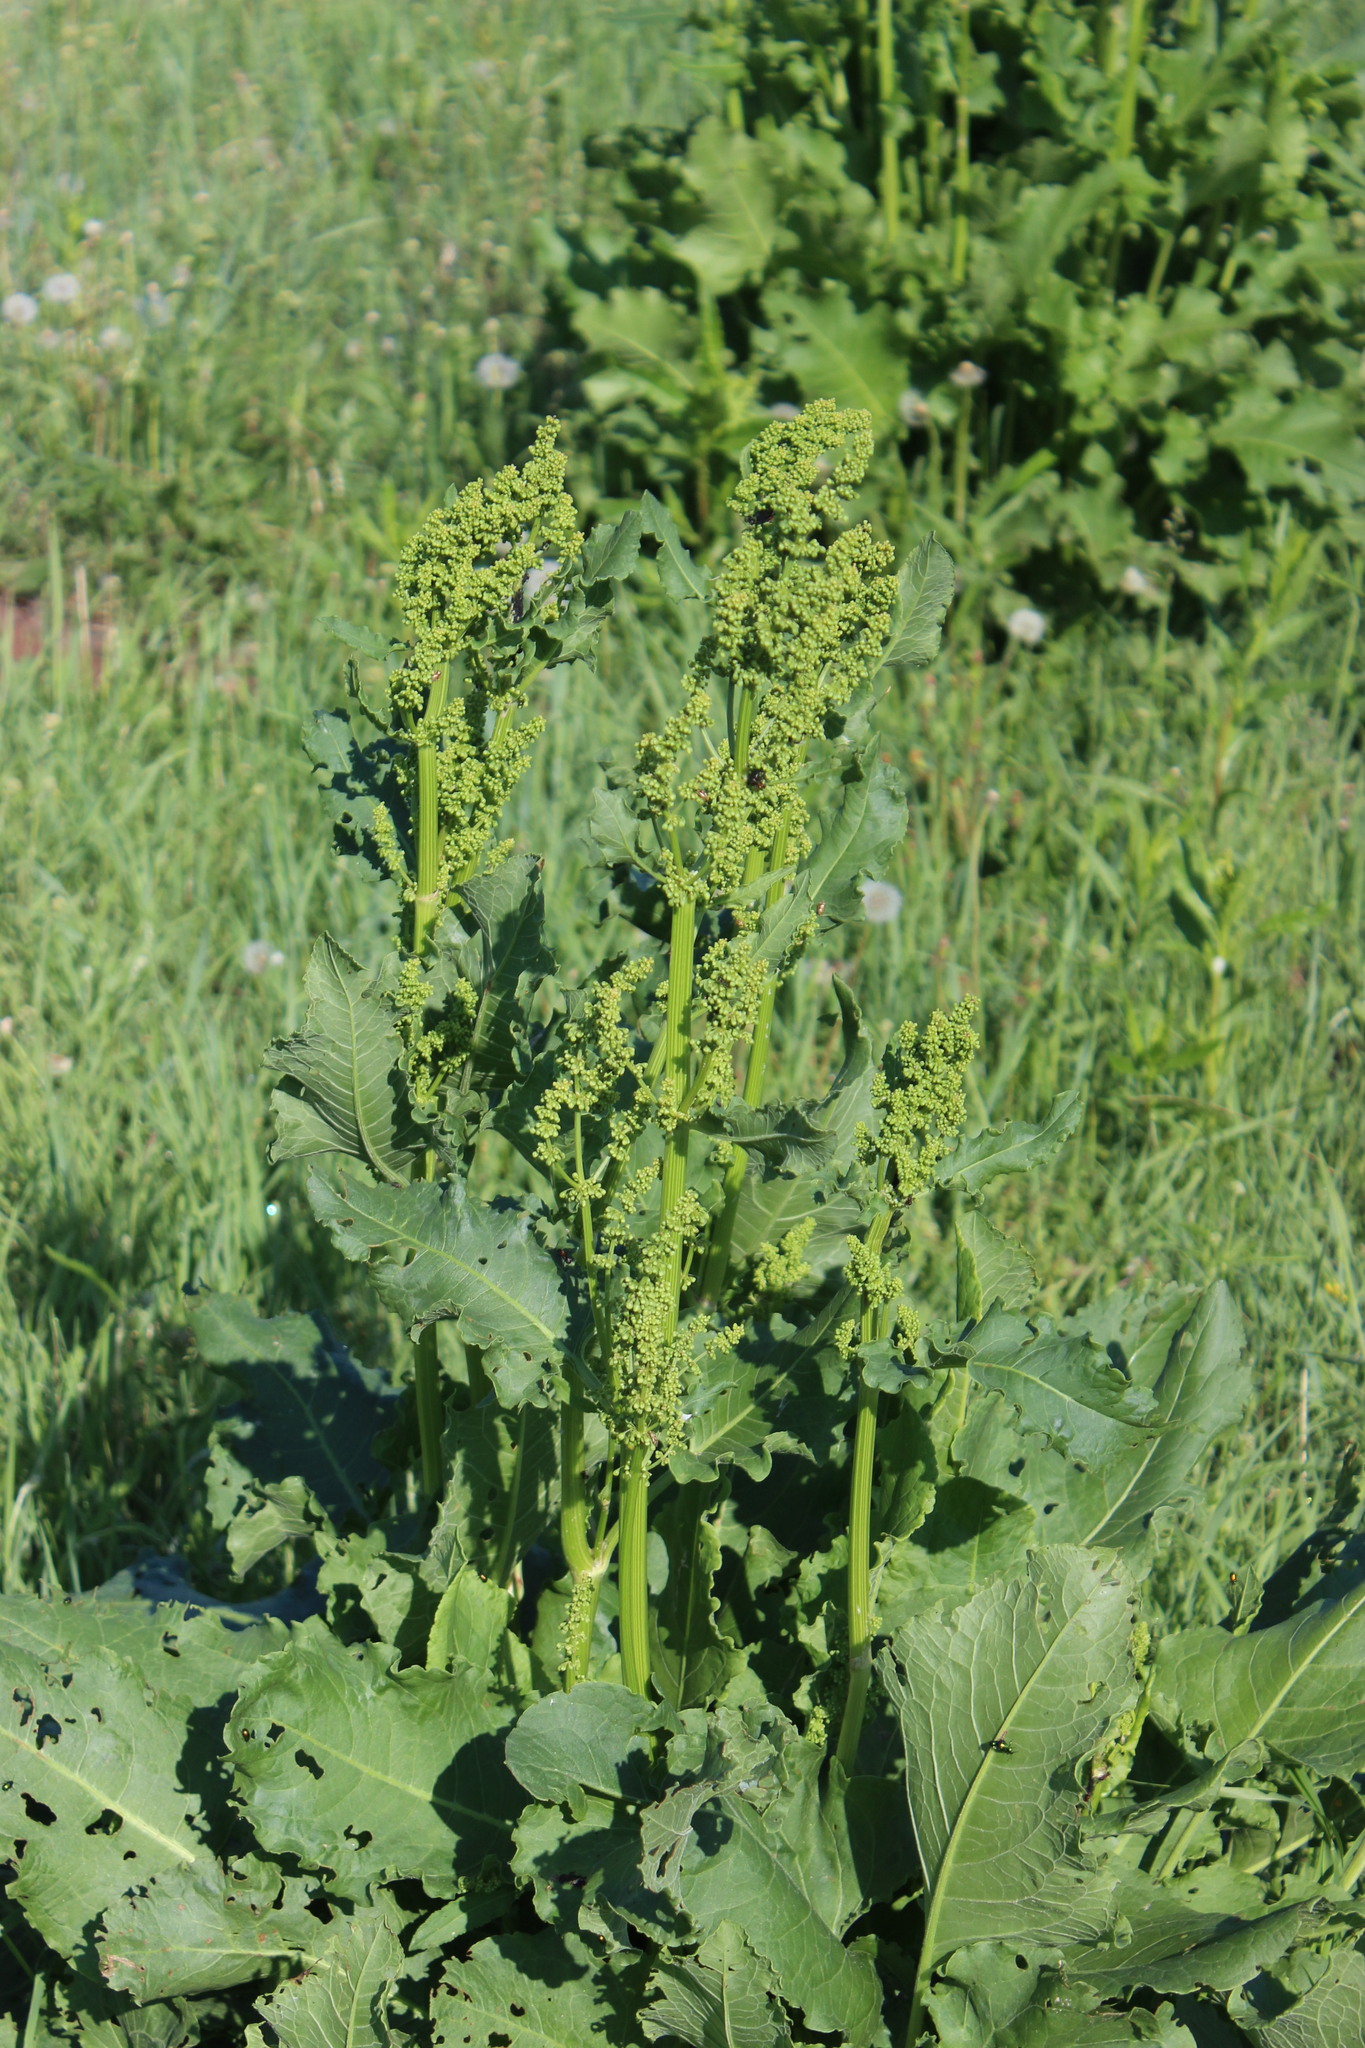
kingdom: Plantae
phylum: Tracheophyta
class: Magnoliopsida
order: Caryophyllales
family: Polygonaceae
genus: Rumex
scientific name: Rumex confertus
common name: Russian dock
